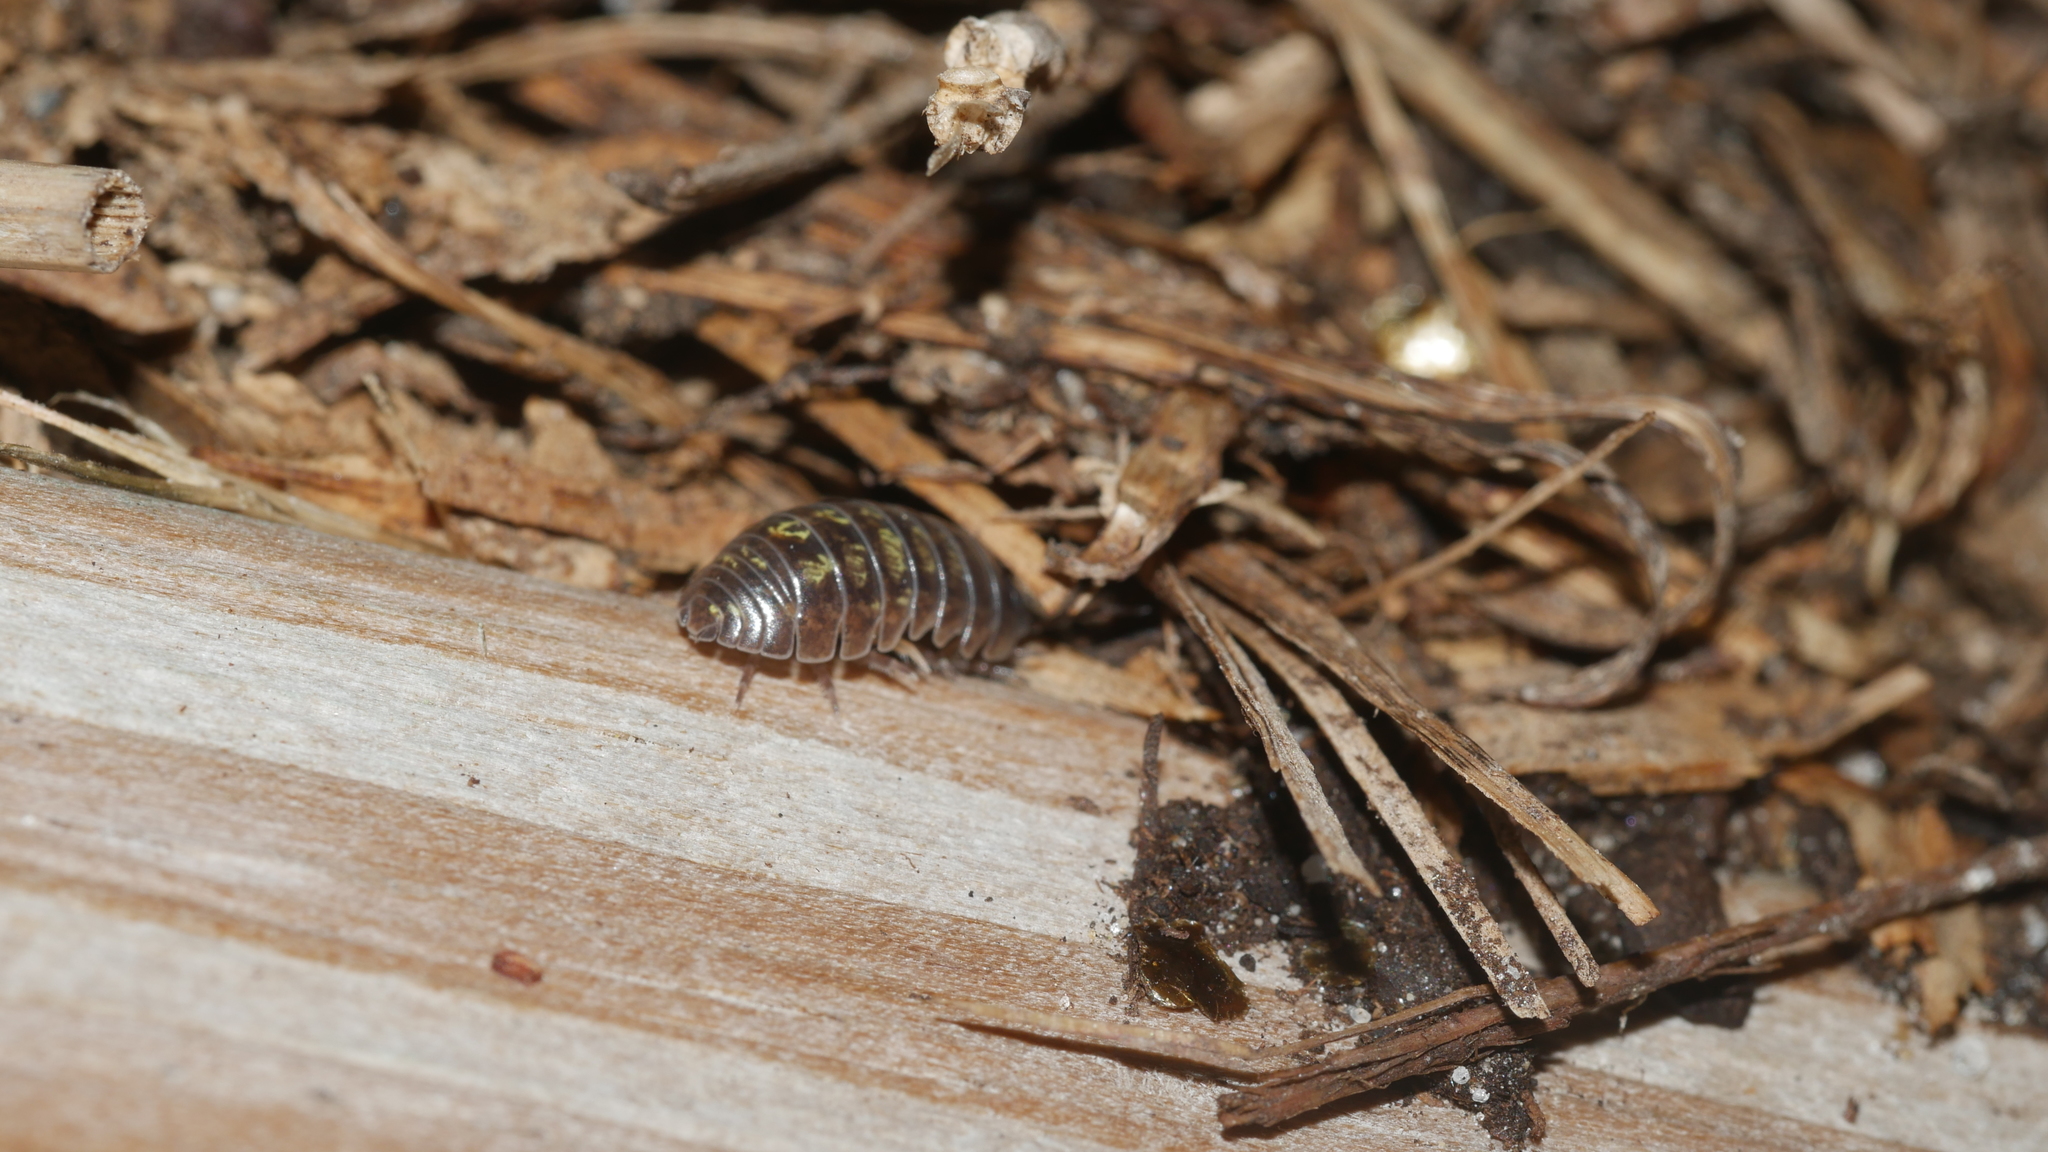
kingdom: Animalia
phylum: Arthropoda
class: Malacostraca
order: Isopoda
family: Armadillidiidae
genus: Armadillidium
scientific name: Armadillidium vulgare
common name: Common pill woodlouse
